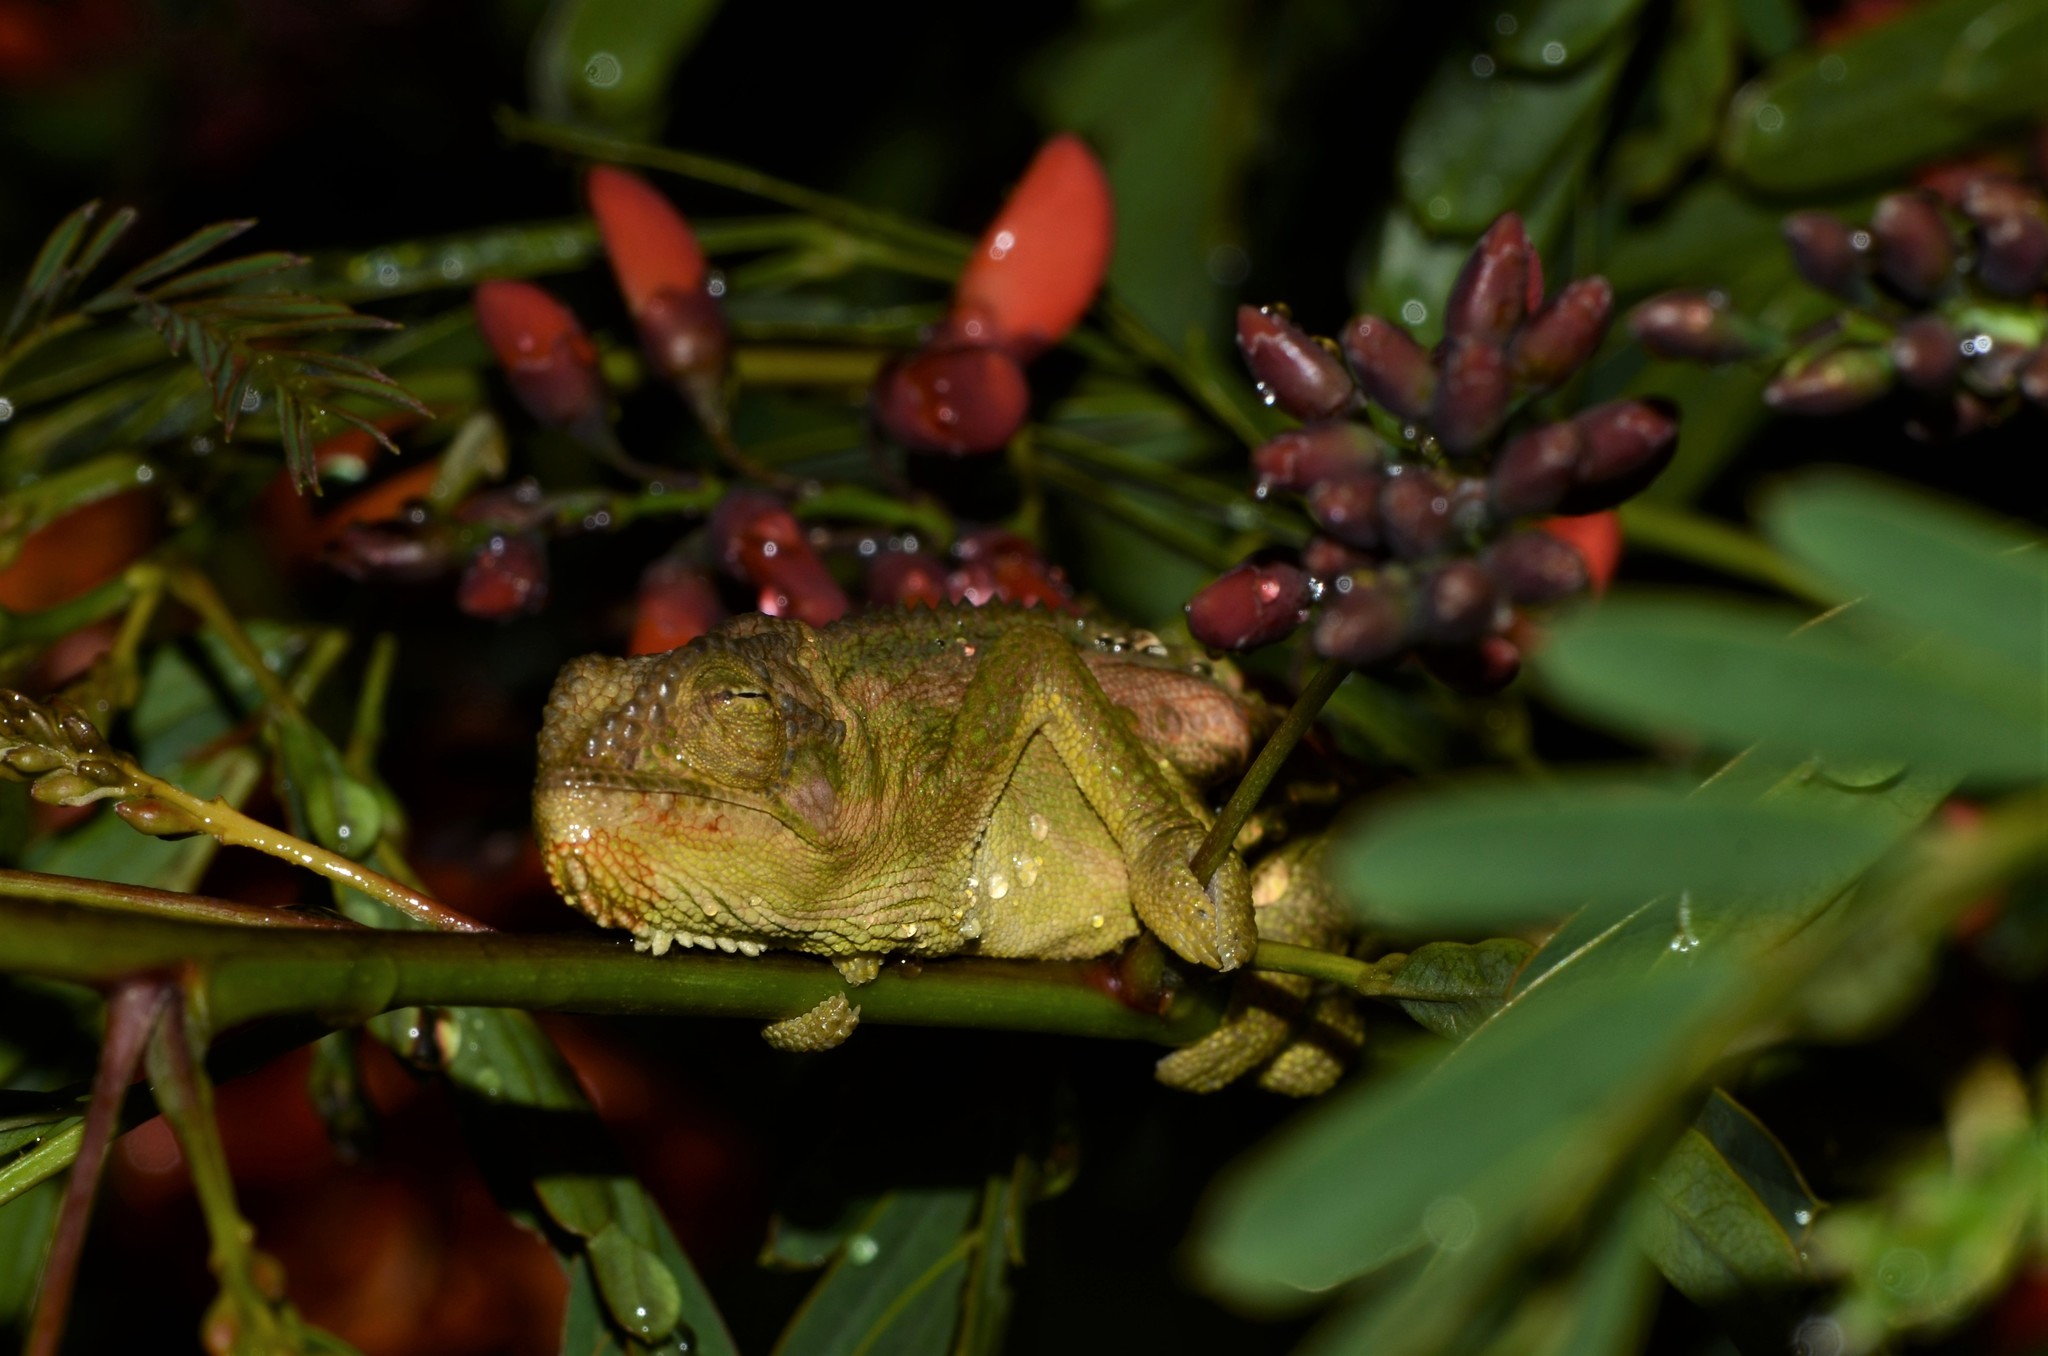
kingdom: Animalia
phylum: Chordata
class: Squamata
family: Chamaeleonidae
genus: Bradypodion
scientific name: Bradypodion pumilum
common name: Cape dwarf chameleon
